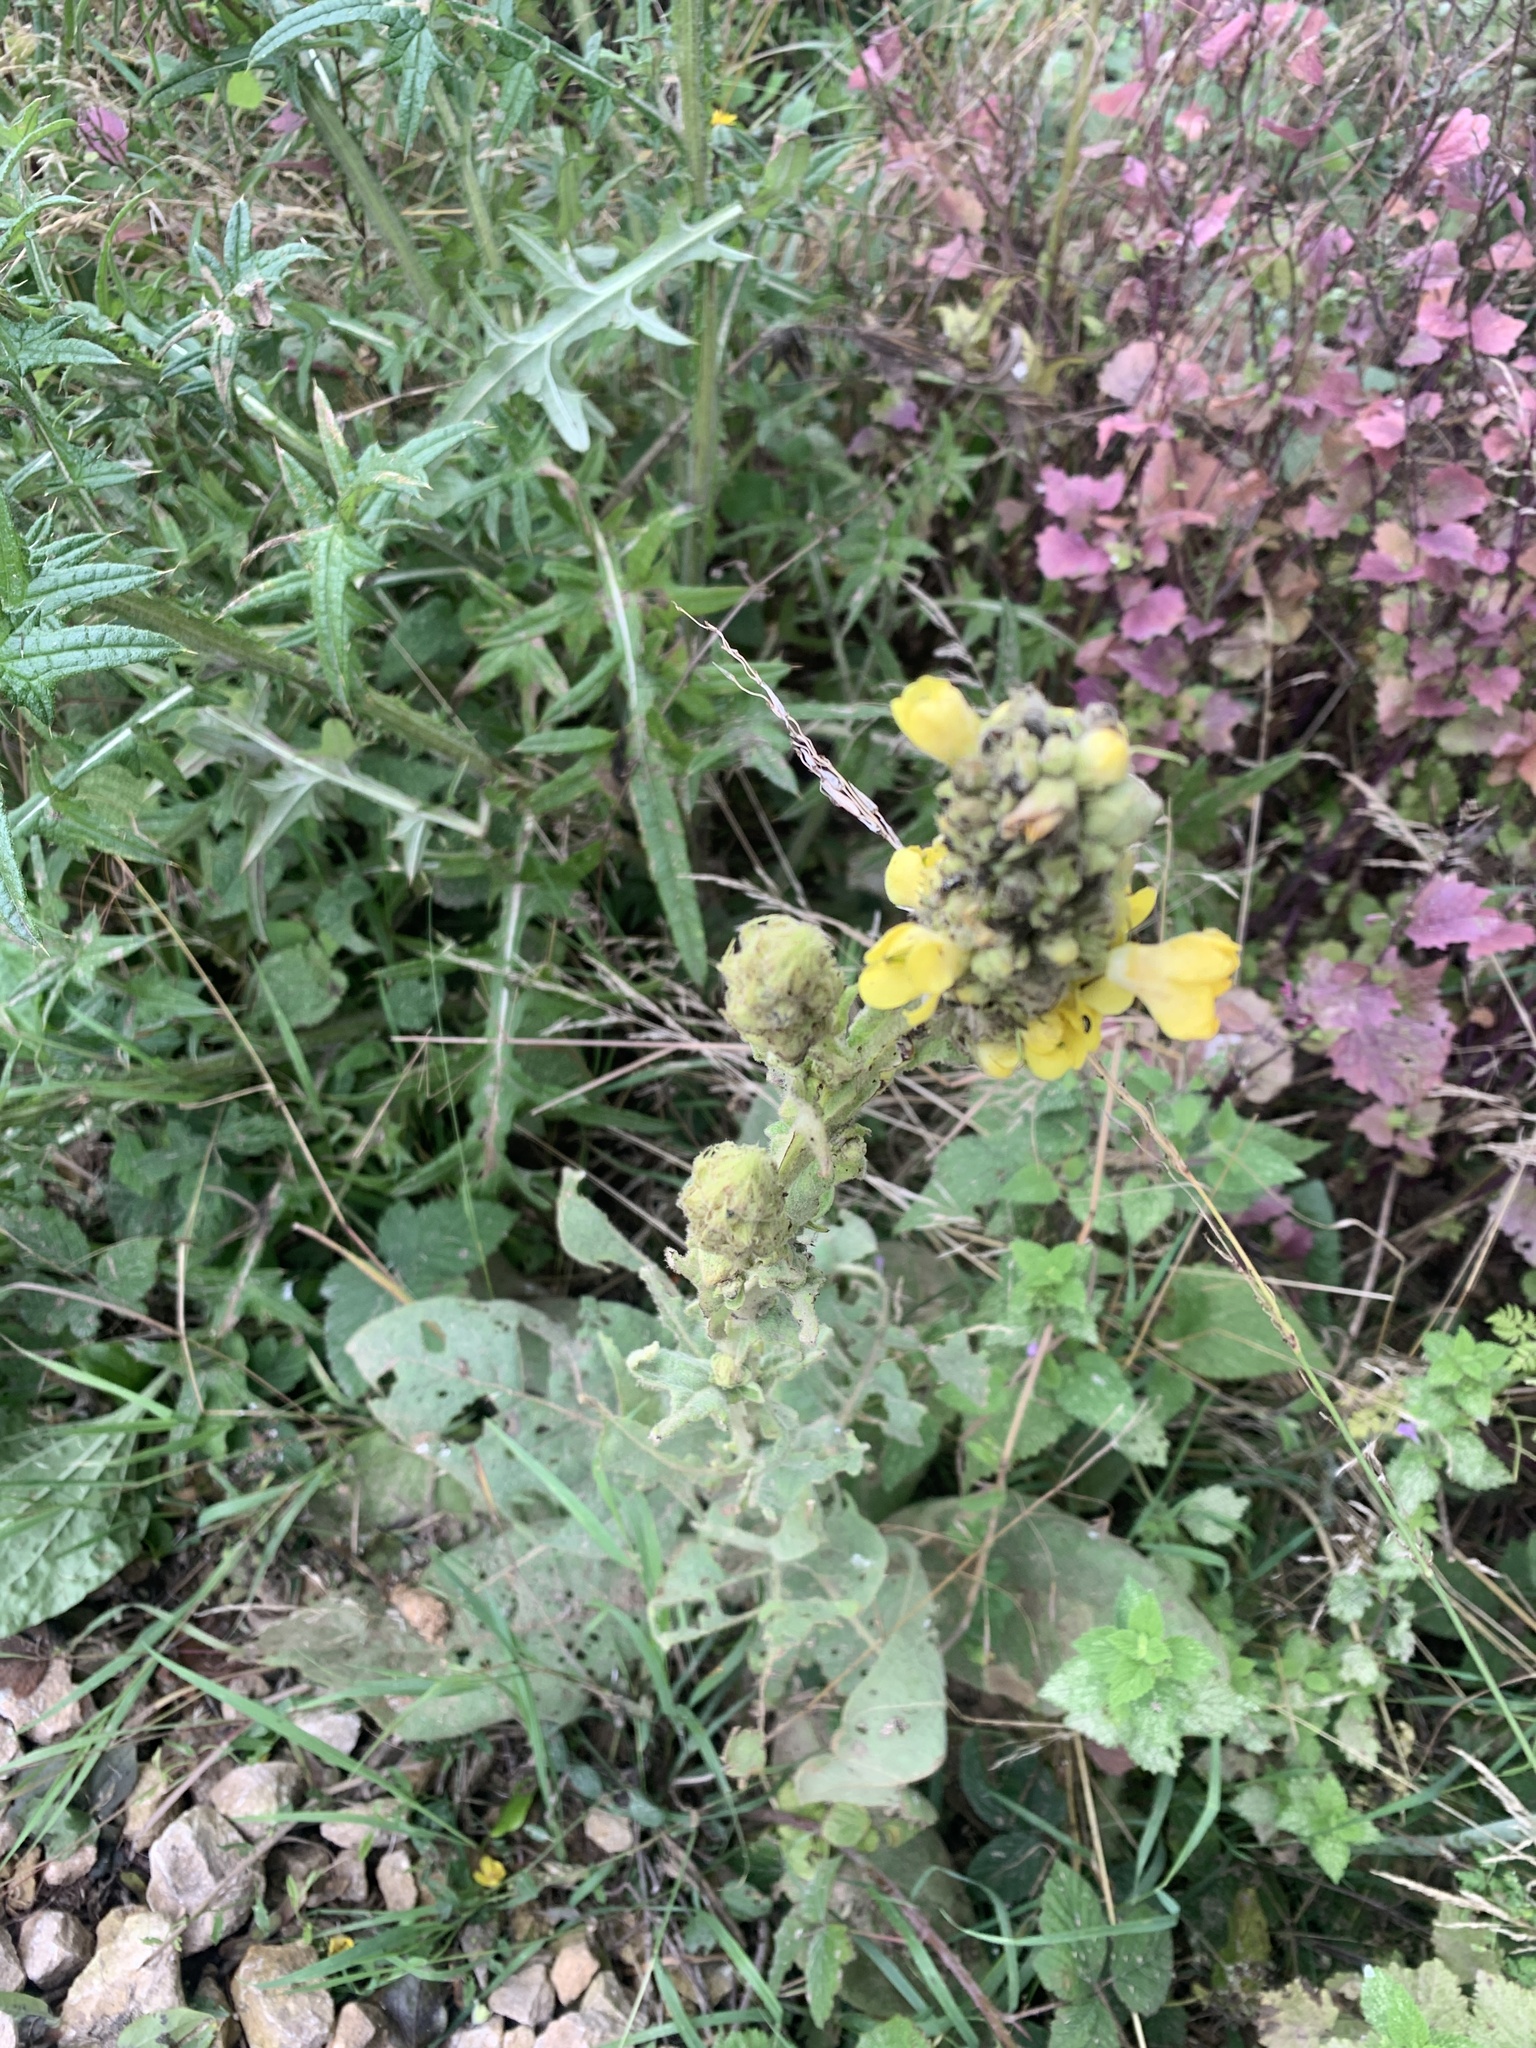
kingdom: Plantae
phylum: Tracheophyta
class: Magnoliopsida
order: Lamiales
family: Scrophulariaceae
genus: Verbascum
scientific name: Verbascum thapsus
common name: Common mullein
